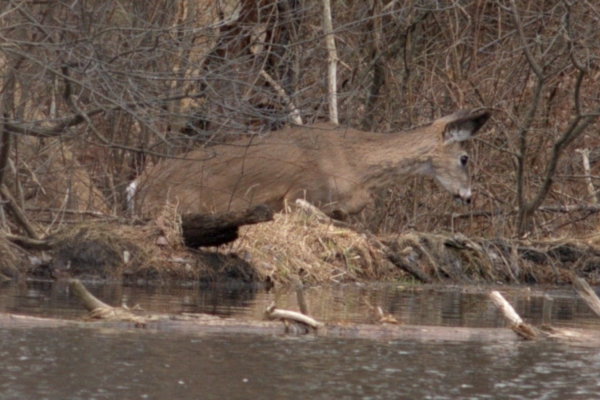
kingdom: Animalia
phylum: Chordata
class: Mammalia
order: Artiodactyla
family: Cervidae
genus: Odocoileus
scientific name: Odocoileus virginianus
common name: White-tailed deer
